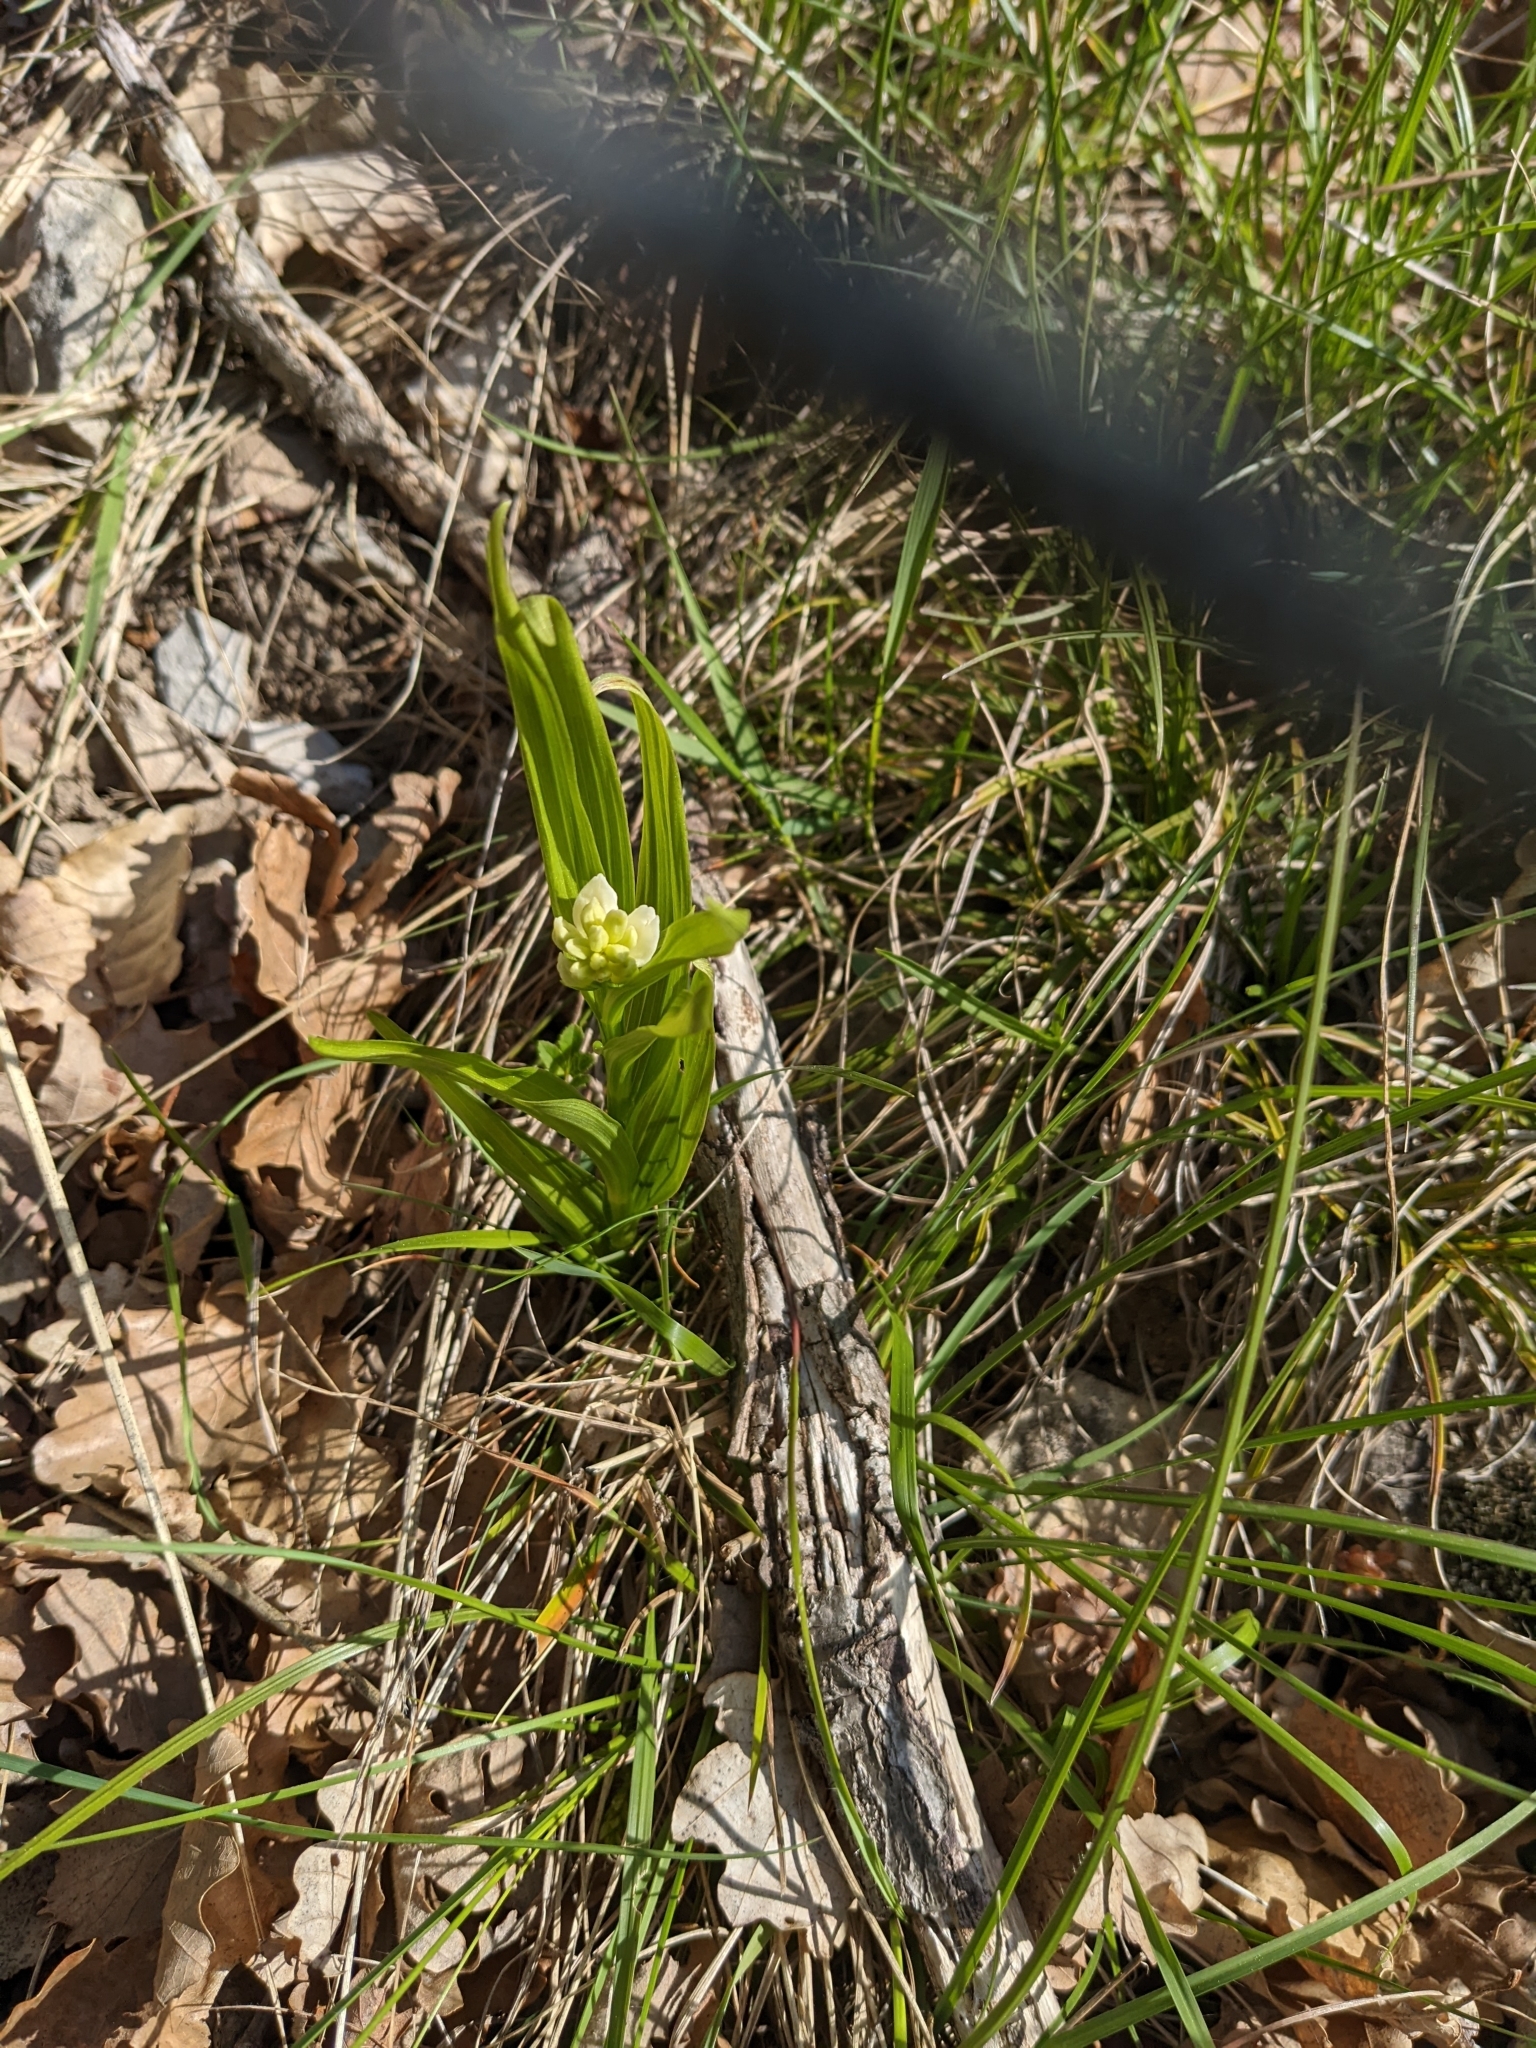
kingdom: Plantae
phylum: Tracheophyta
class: Liliopsida
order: Asparagales
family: Orchidaceae
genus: Cephalanthera
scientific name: Cephalanthera longifolia
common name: Narrow-leaved helleborine
